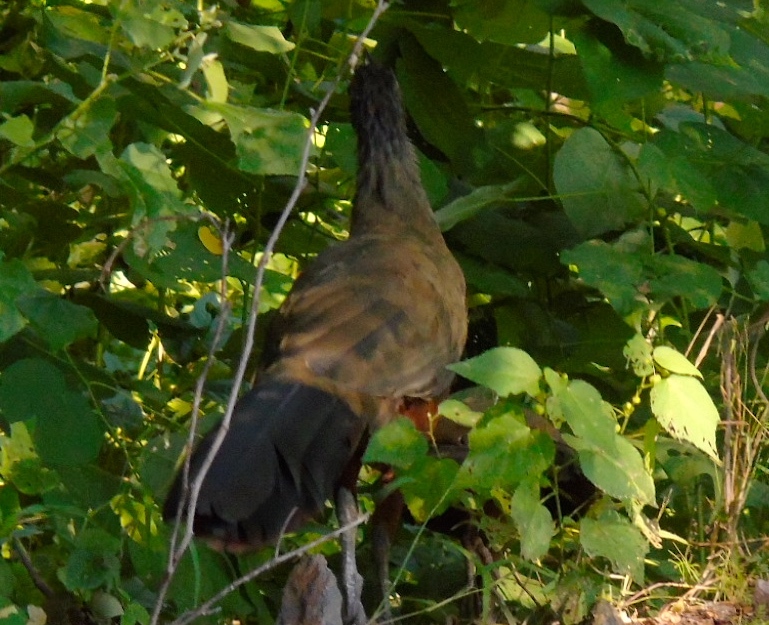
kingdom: Animalia
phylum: Chordata
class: Aves
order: Galliformes
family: Cracidae
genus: Ortalis
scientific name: Ortalis wagleri
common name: Rufous-bellied chachalaca
